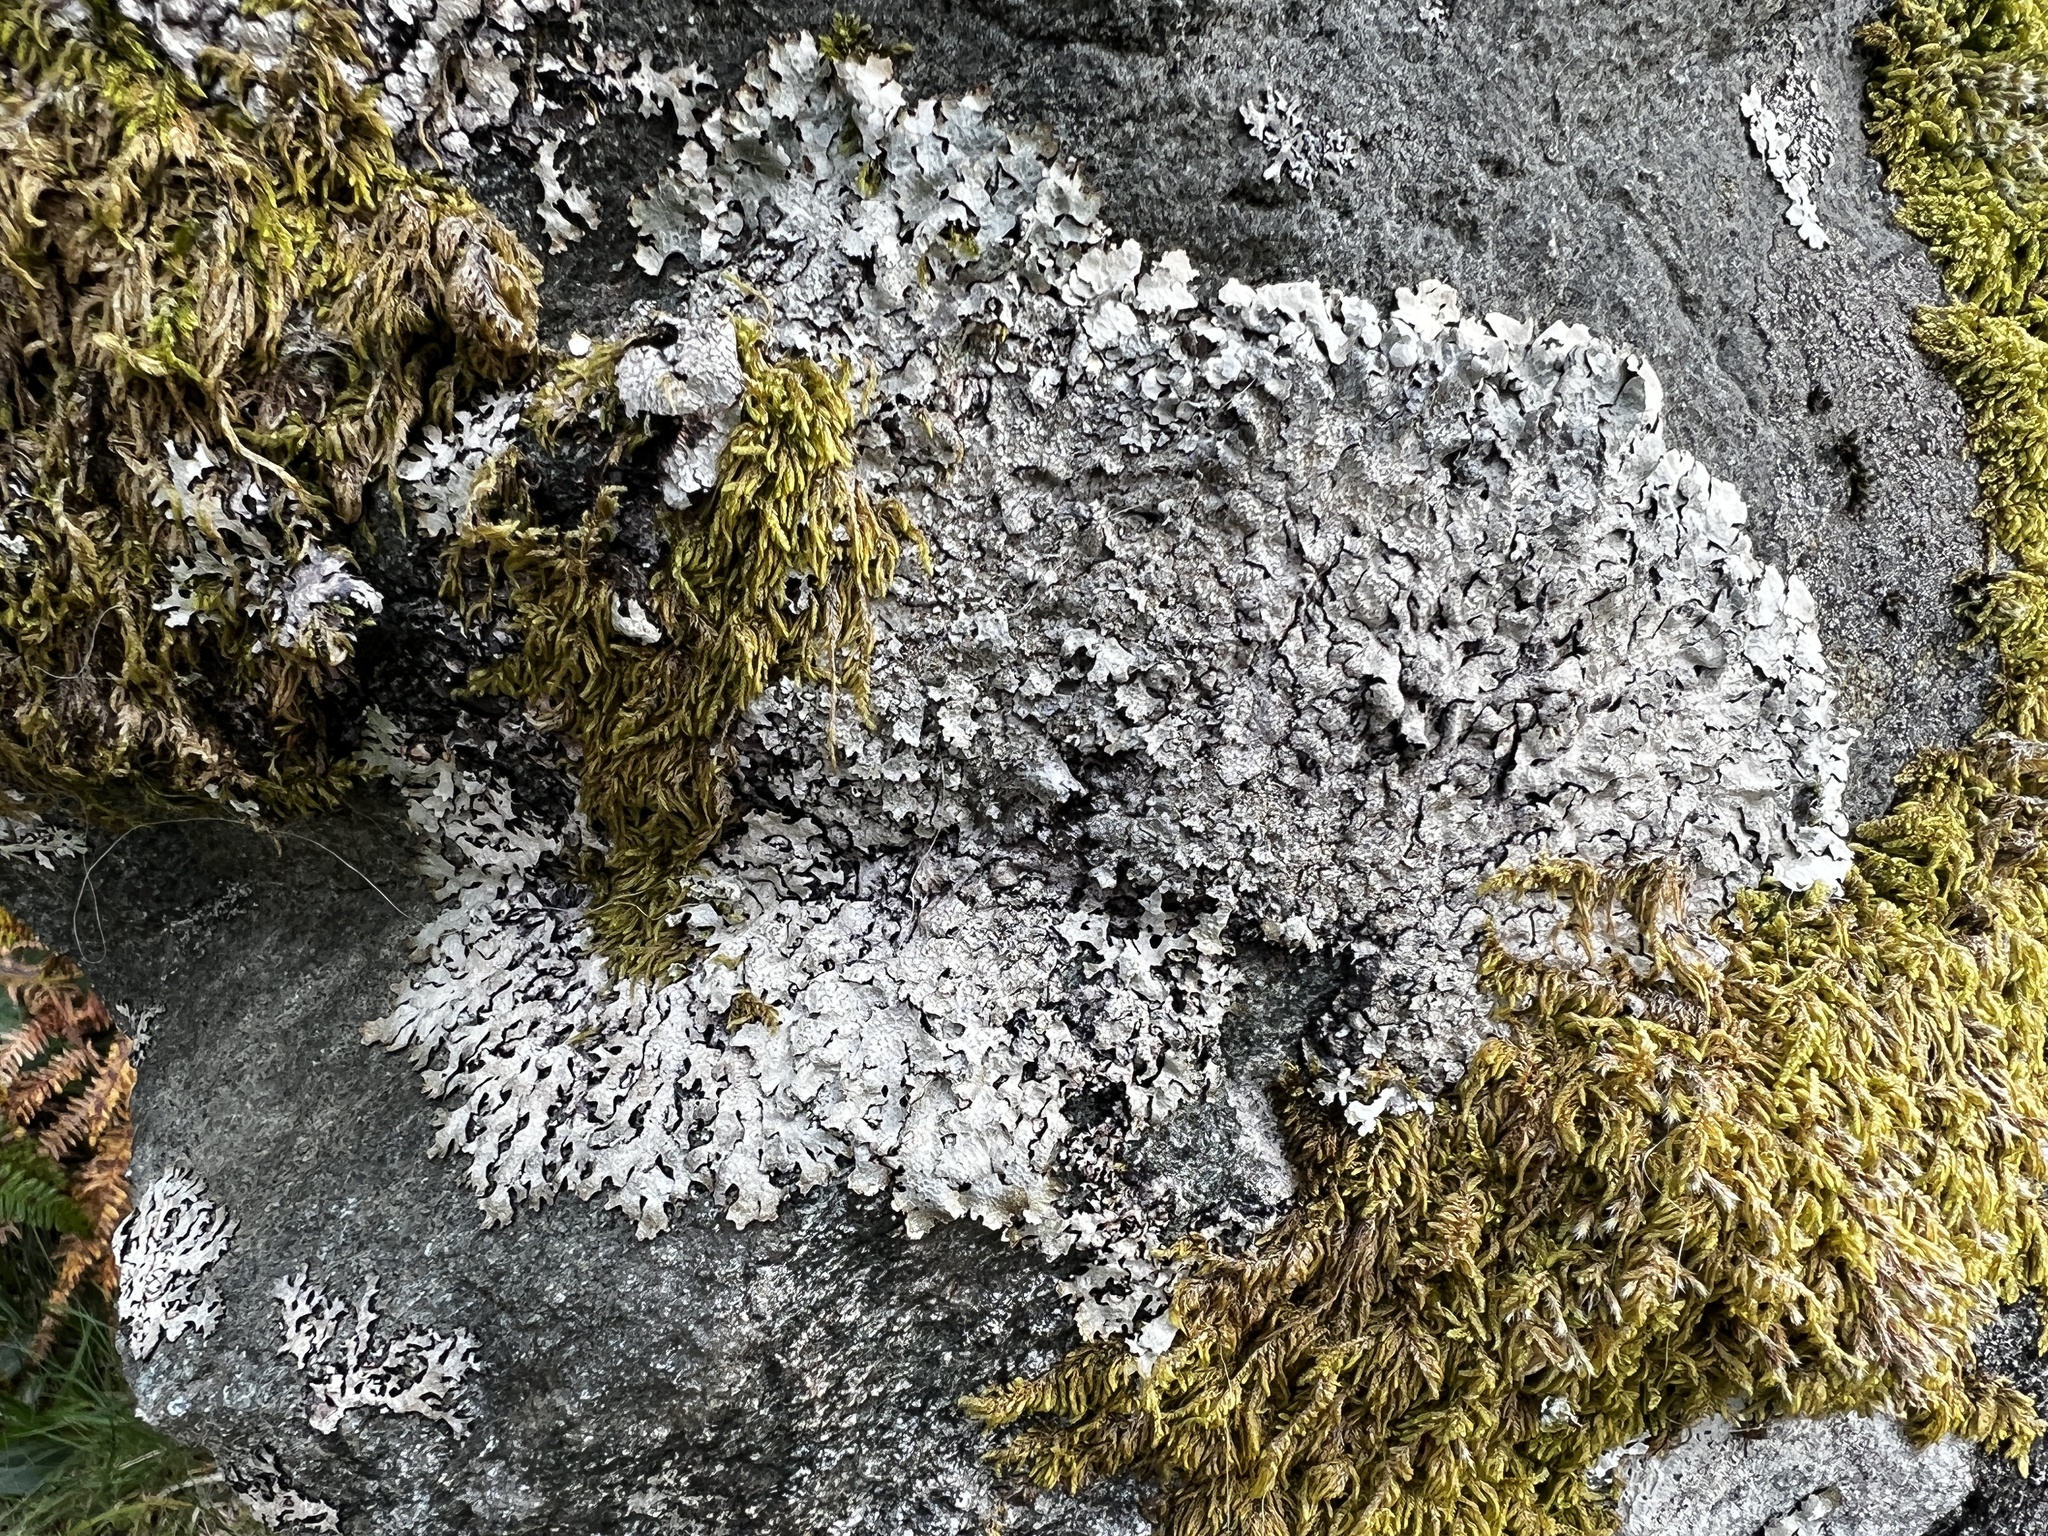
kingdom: Fungi
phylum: Ascomycota
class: Lecanoromycetes
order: Lecanorales
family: Parmeliaceae
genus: Parmelia
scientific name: Parmelia sulcata
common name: Netted shield lichen
